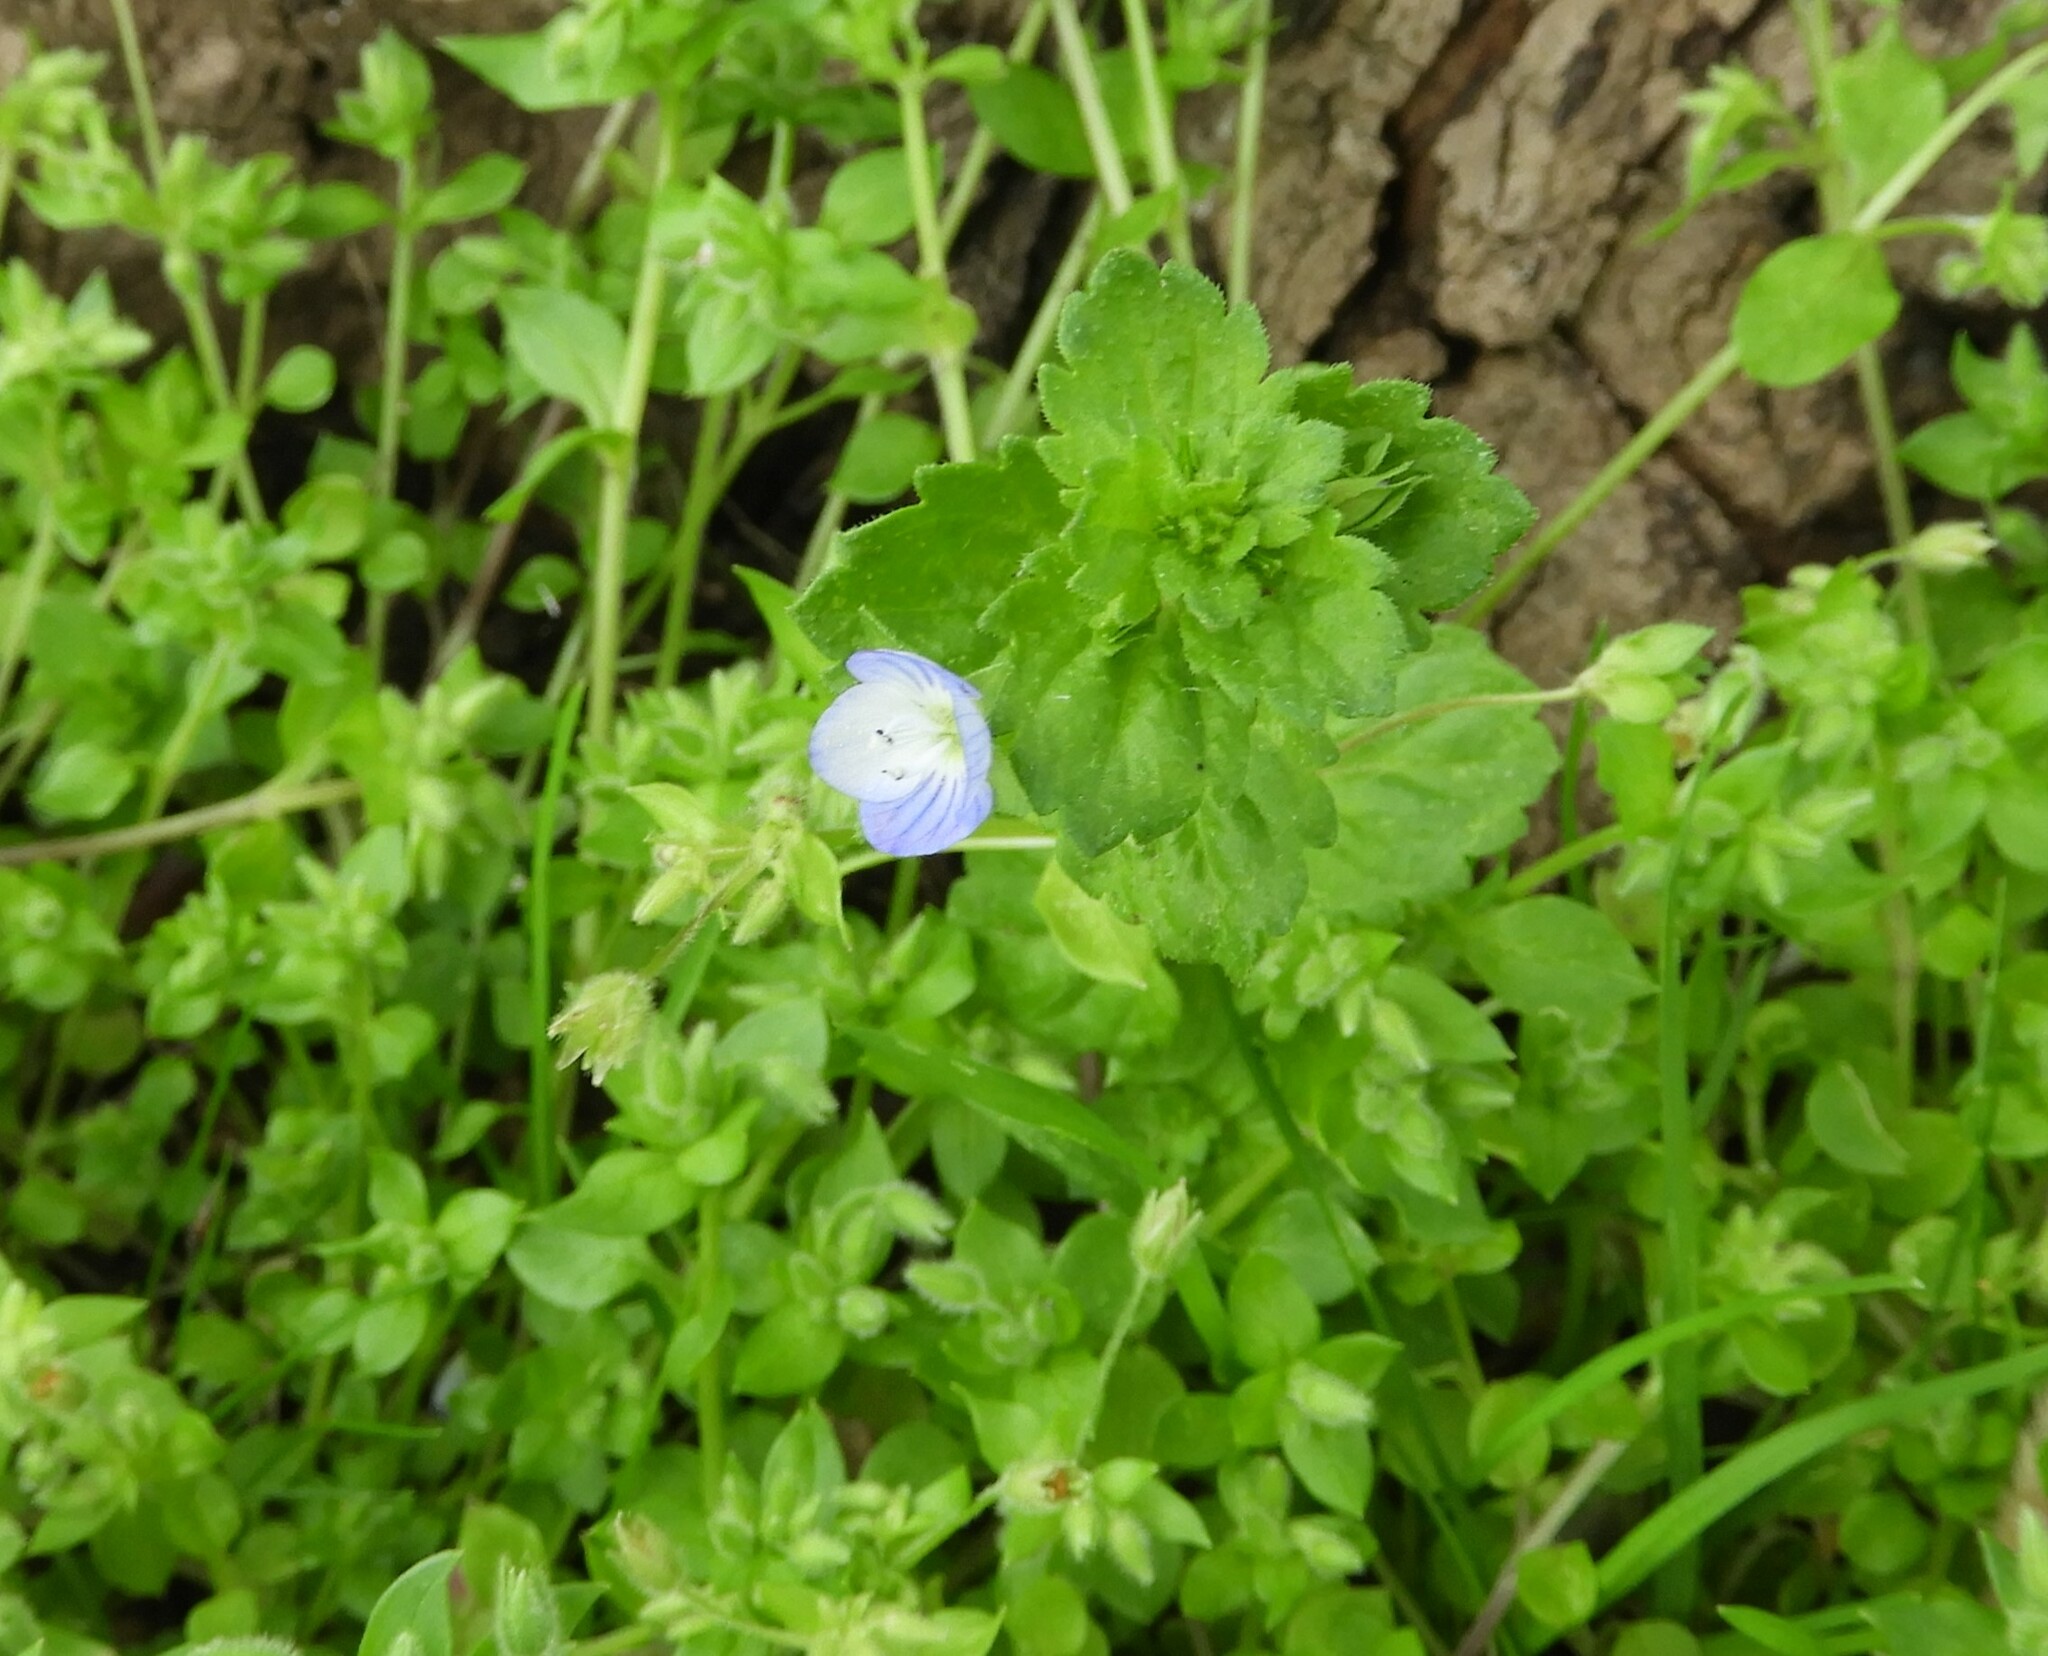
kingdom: Plantae
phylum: Tracheophyta
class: Magnoliopsida
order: Lamiales
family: Plantaginaceae
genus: Veronica
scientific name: Veronica persica
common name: Common field-speedwell
